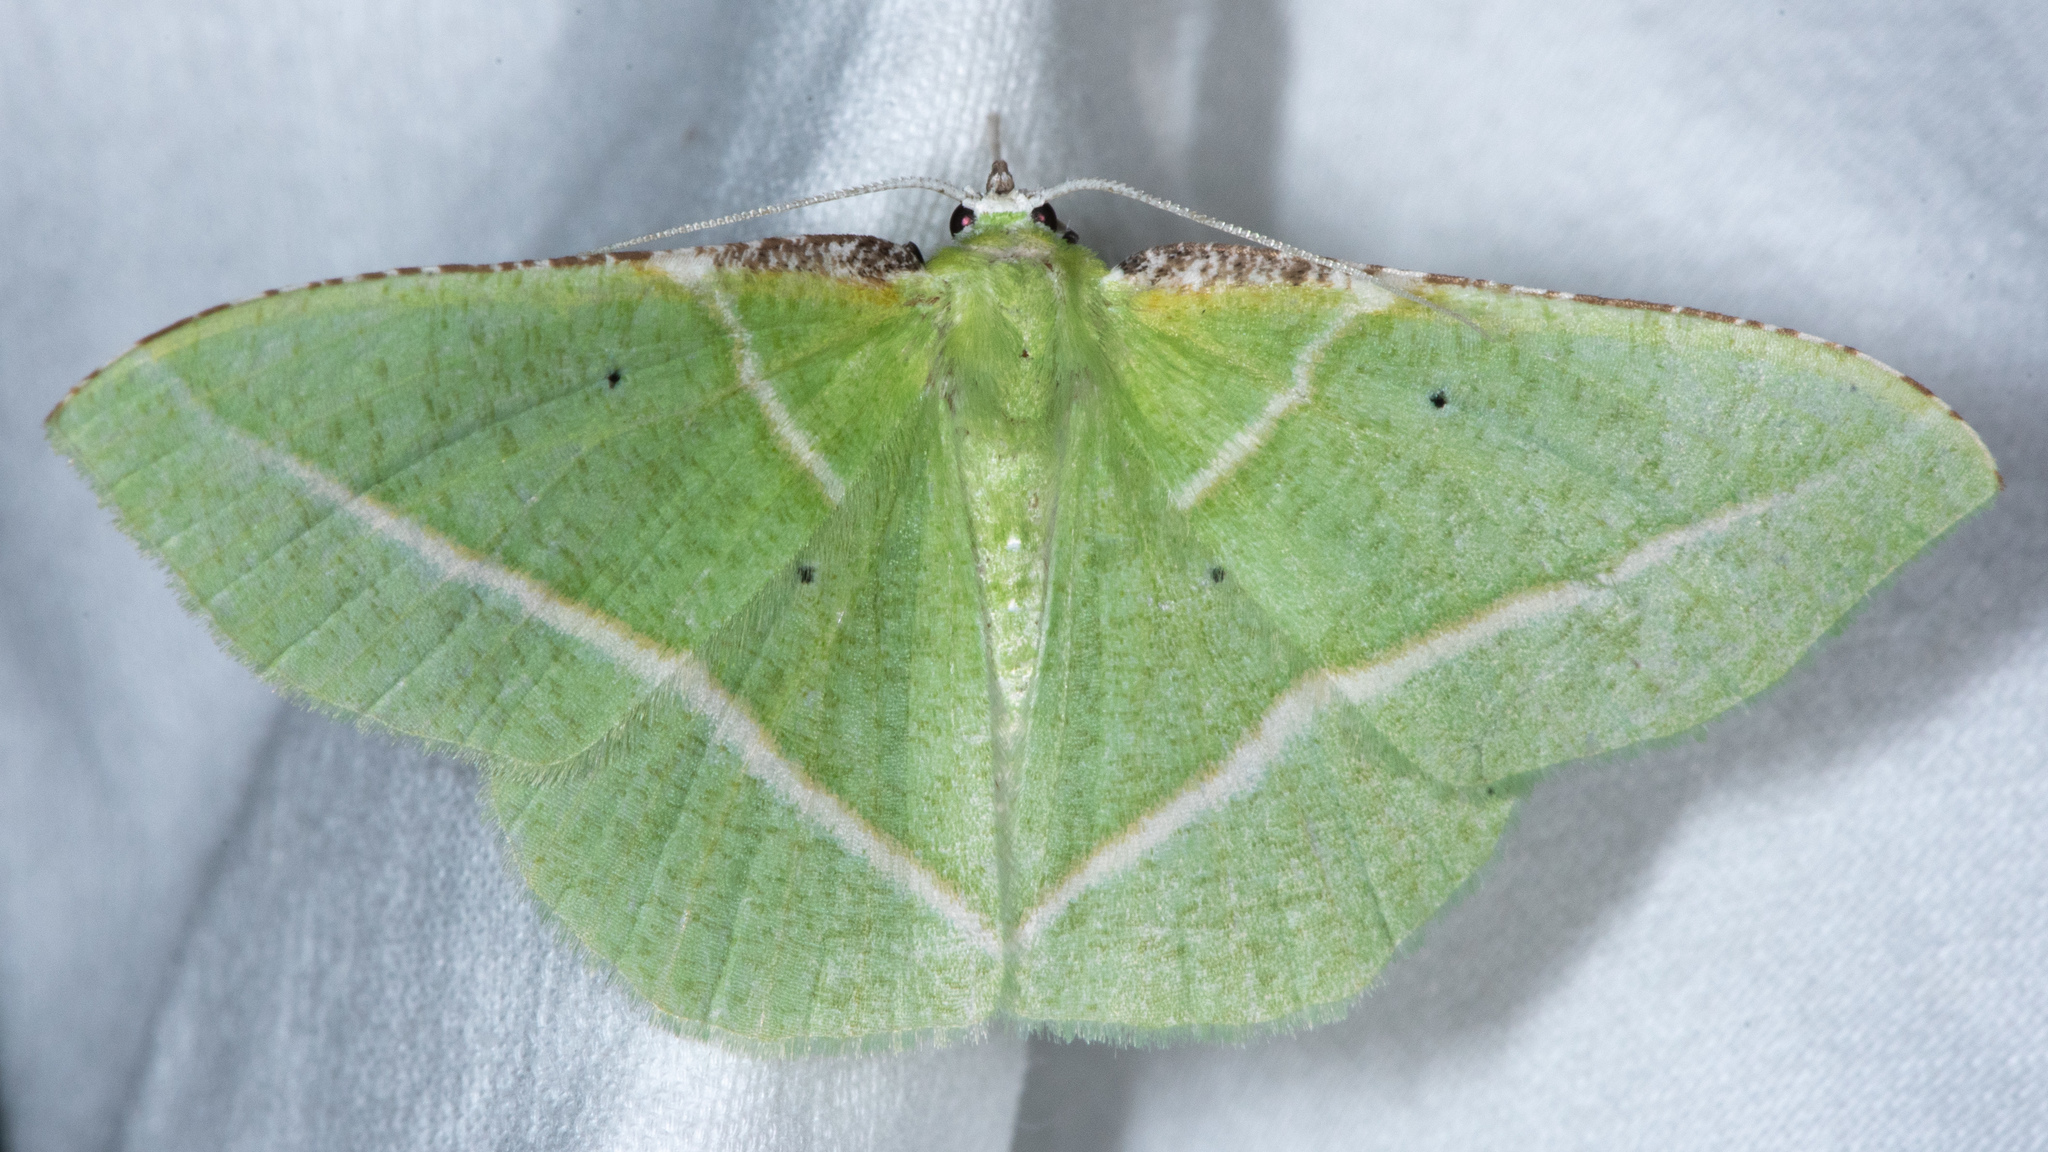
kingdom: Animalia
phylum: Arthropoda
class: Insecta
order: Lepidoptera
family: Geometridae
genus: Dichorda
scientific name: Dichorda illustraria
